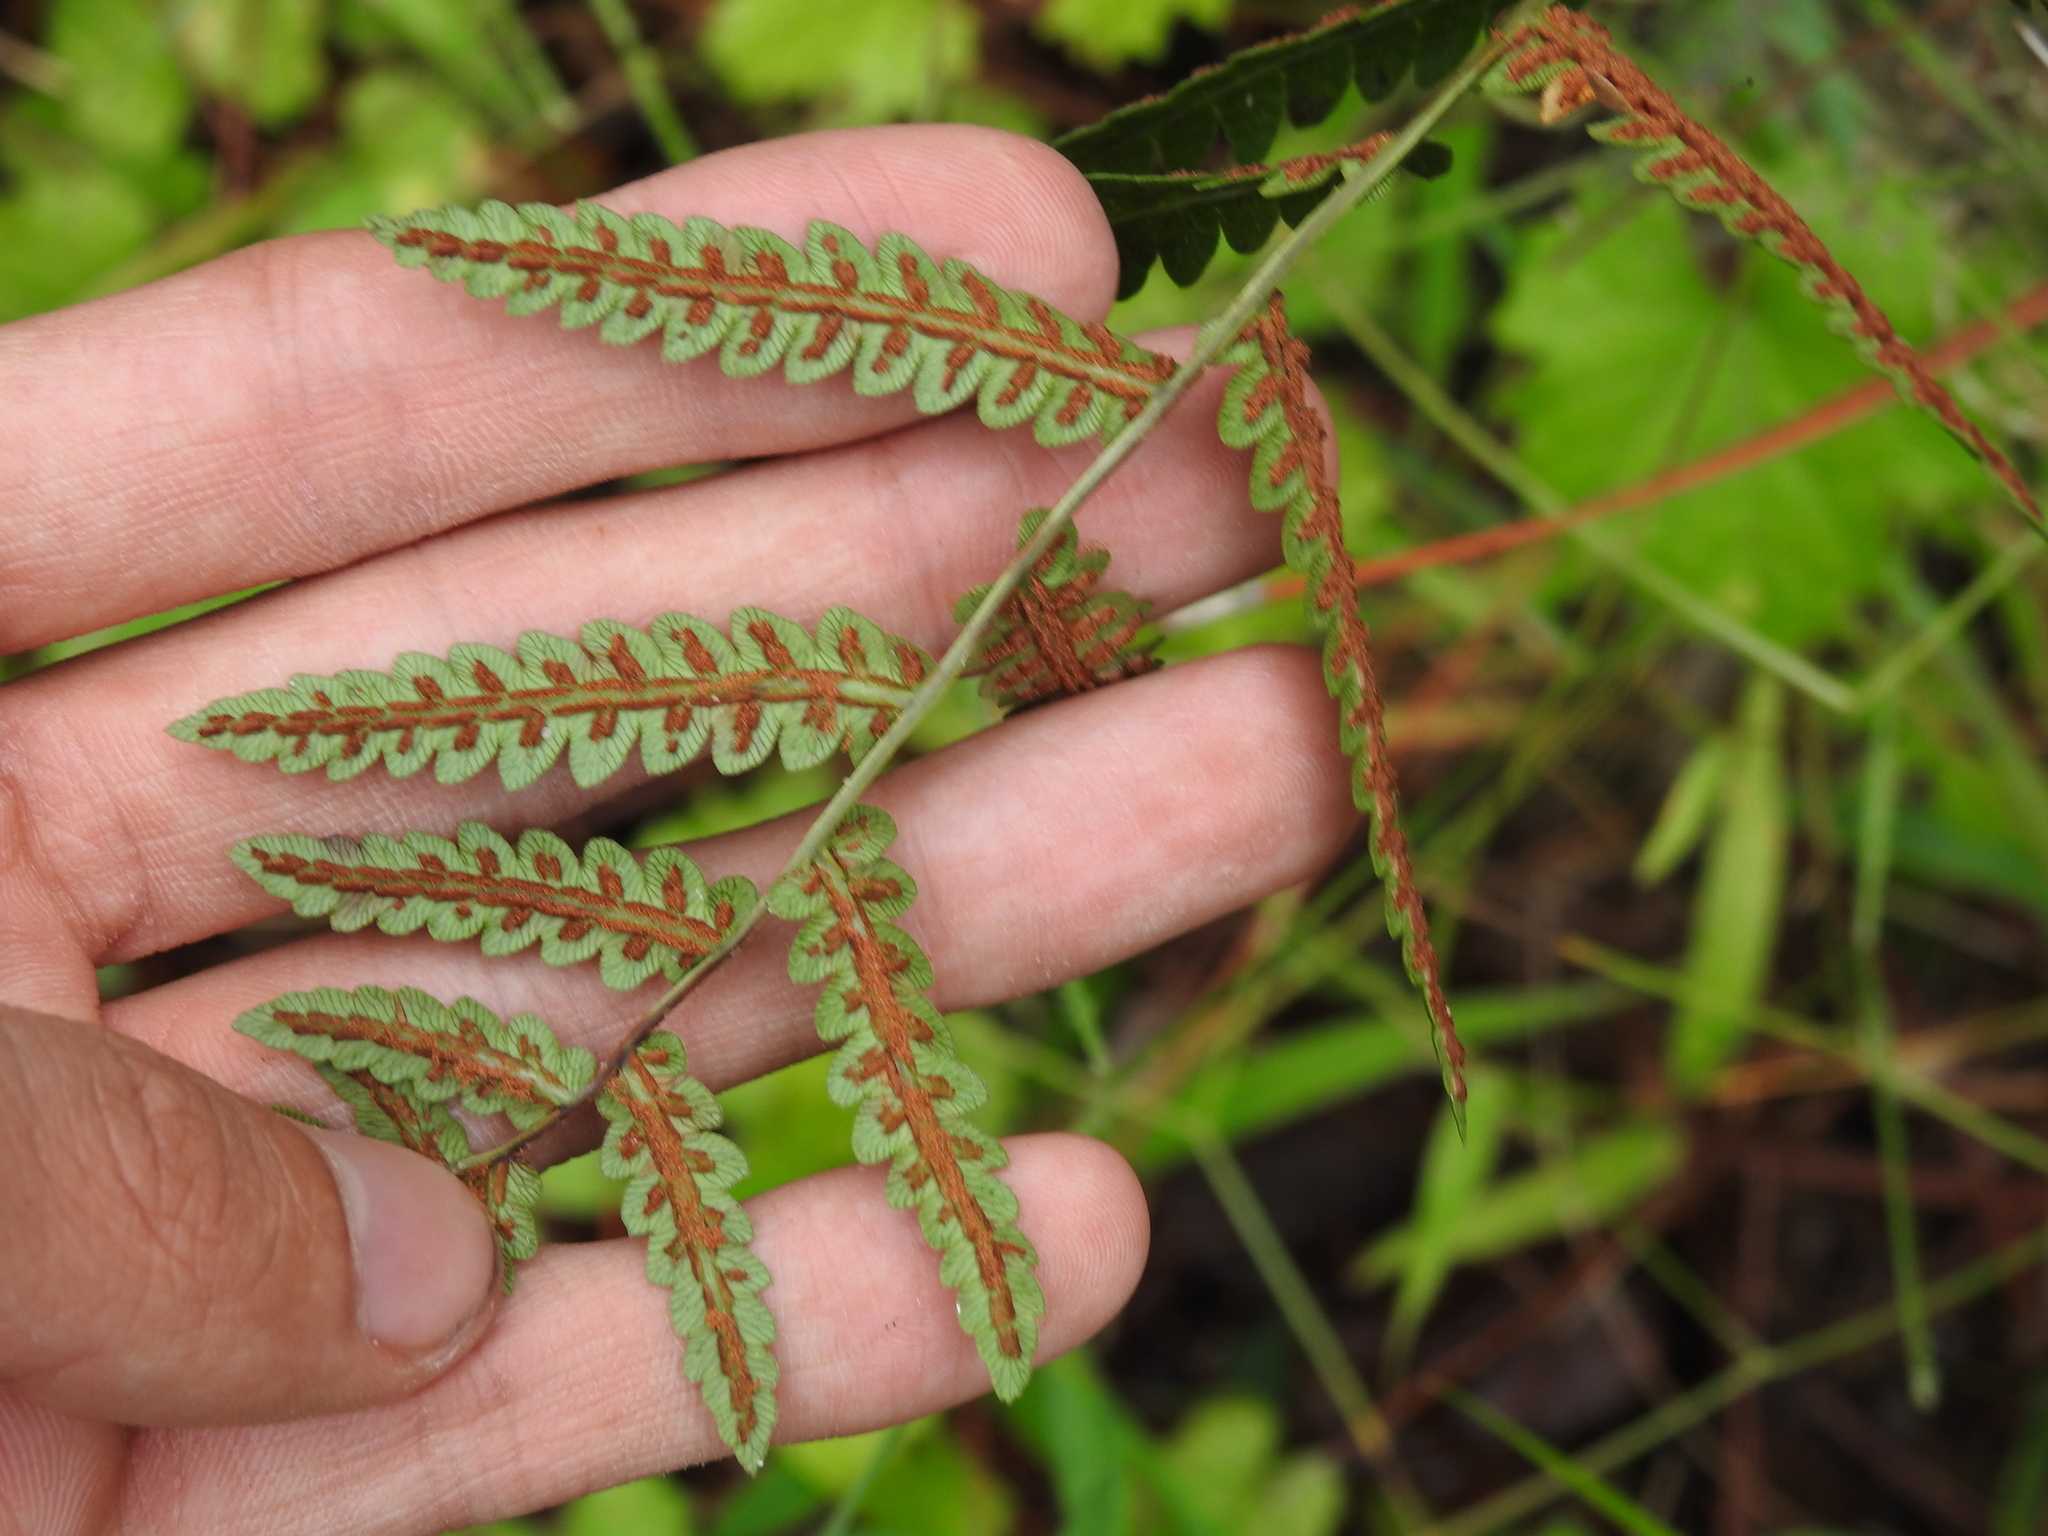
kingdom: Plantae
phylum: Tracheophyta
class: Polypodiopsida
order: Polypodiales
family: Blechnaceae
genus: Anchistea
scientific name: Anchistea virginica
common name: Virginia chain fern
